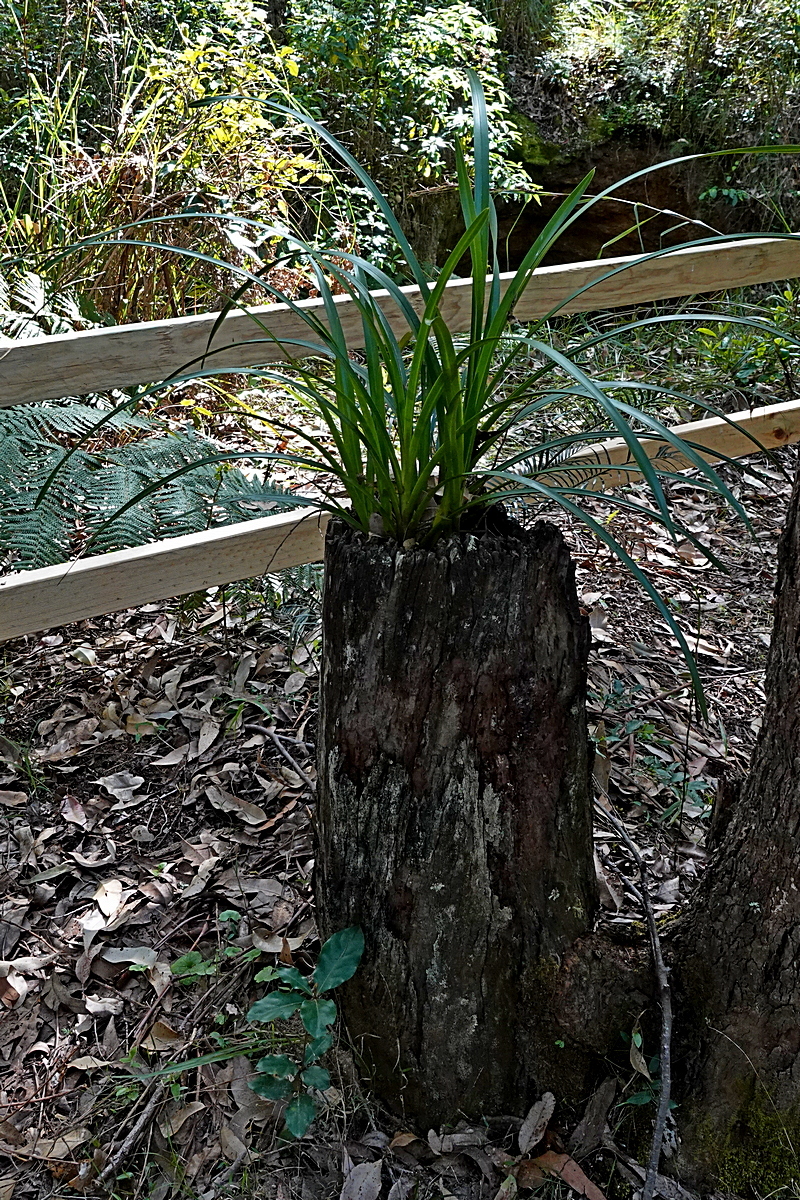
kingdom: Plantae
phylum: Tracheophyta
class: Liliopsida
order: Asparagales
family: Orchidaceae
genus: Cymbidium
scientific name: Cymbidium suave
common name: Snake orchid
